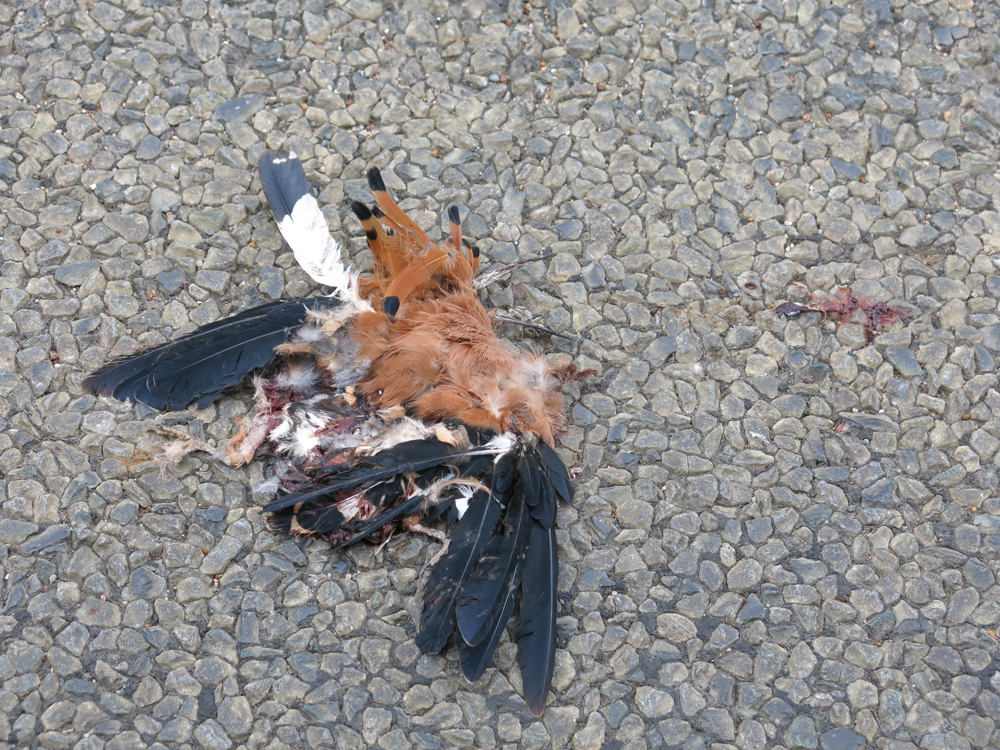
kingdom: Animalia
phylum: Chordata
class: Aves
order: Bucerotiformes
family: Upupidae
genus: Upupa
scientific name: Upupa africana
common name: African hoopoe
